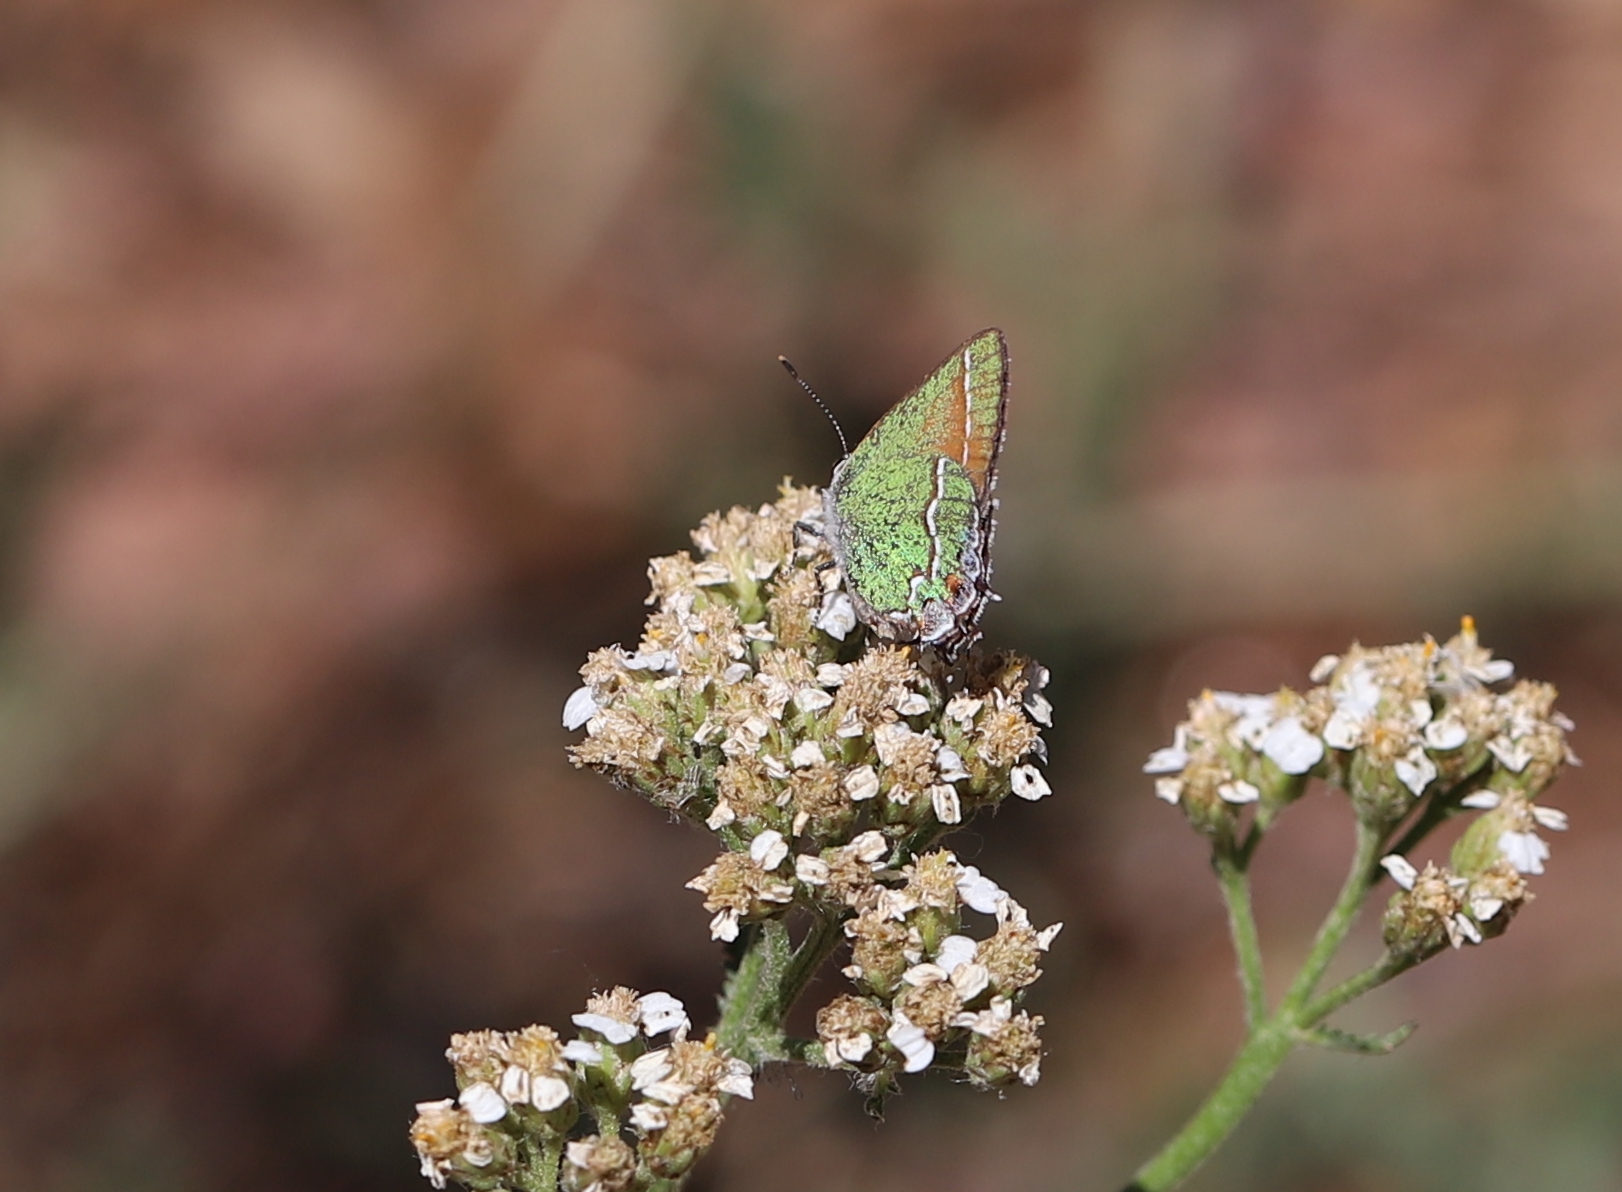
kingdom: Animalia
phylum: Arthropoda
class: Insecta
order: Lepidoptera
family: Lycaenidae
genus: Mitoura
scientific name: Mitoura gryneus
